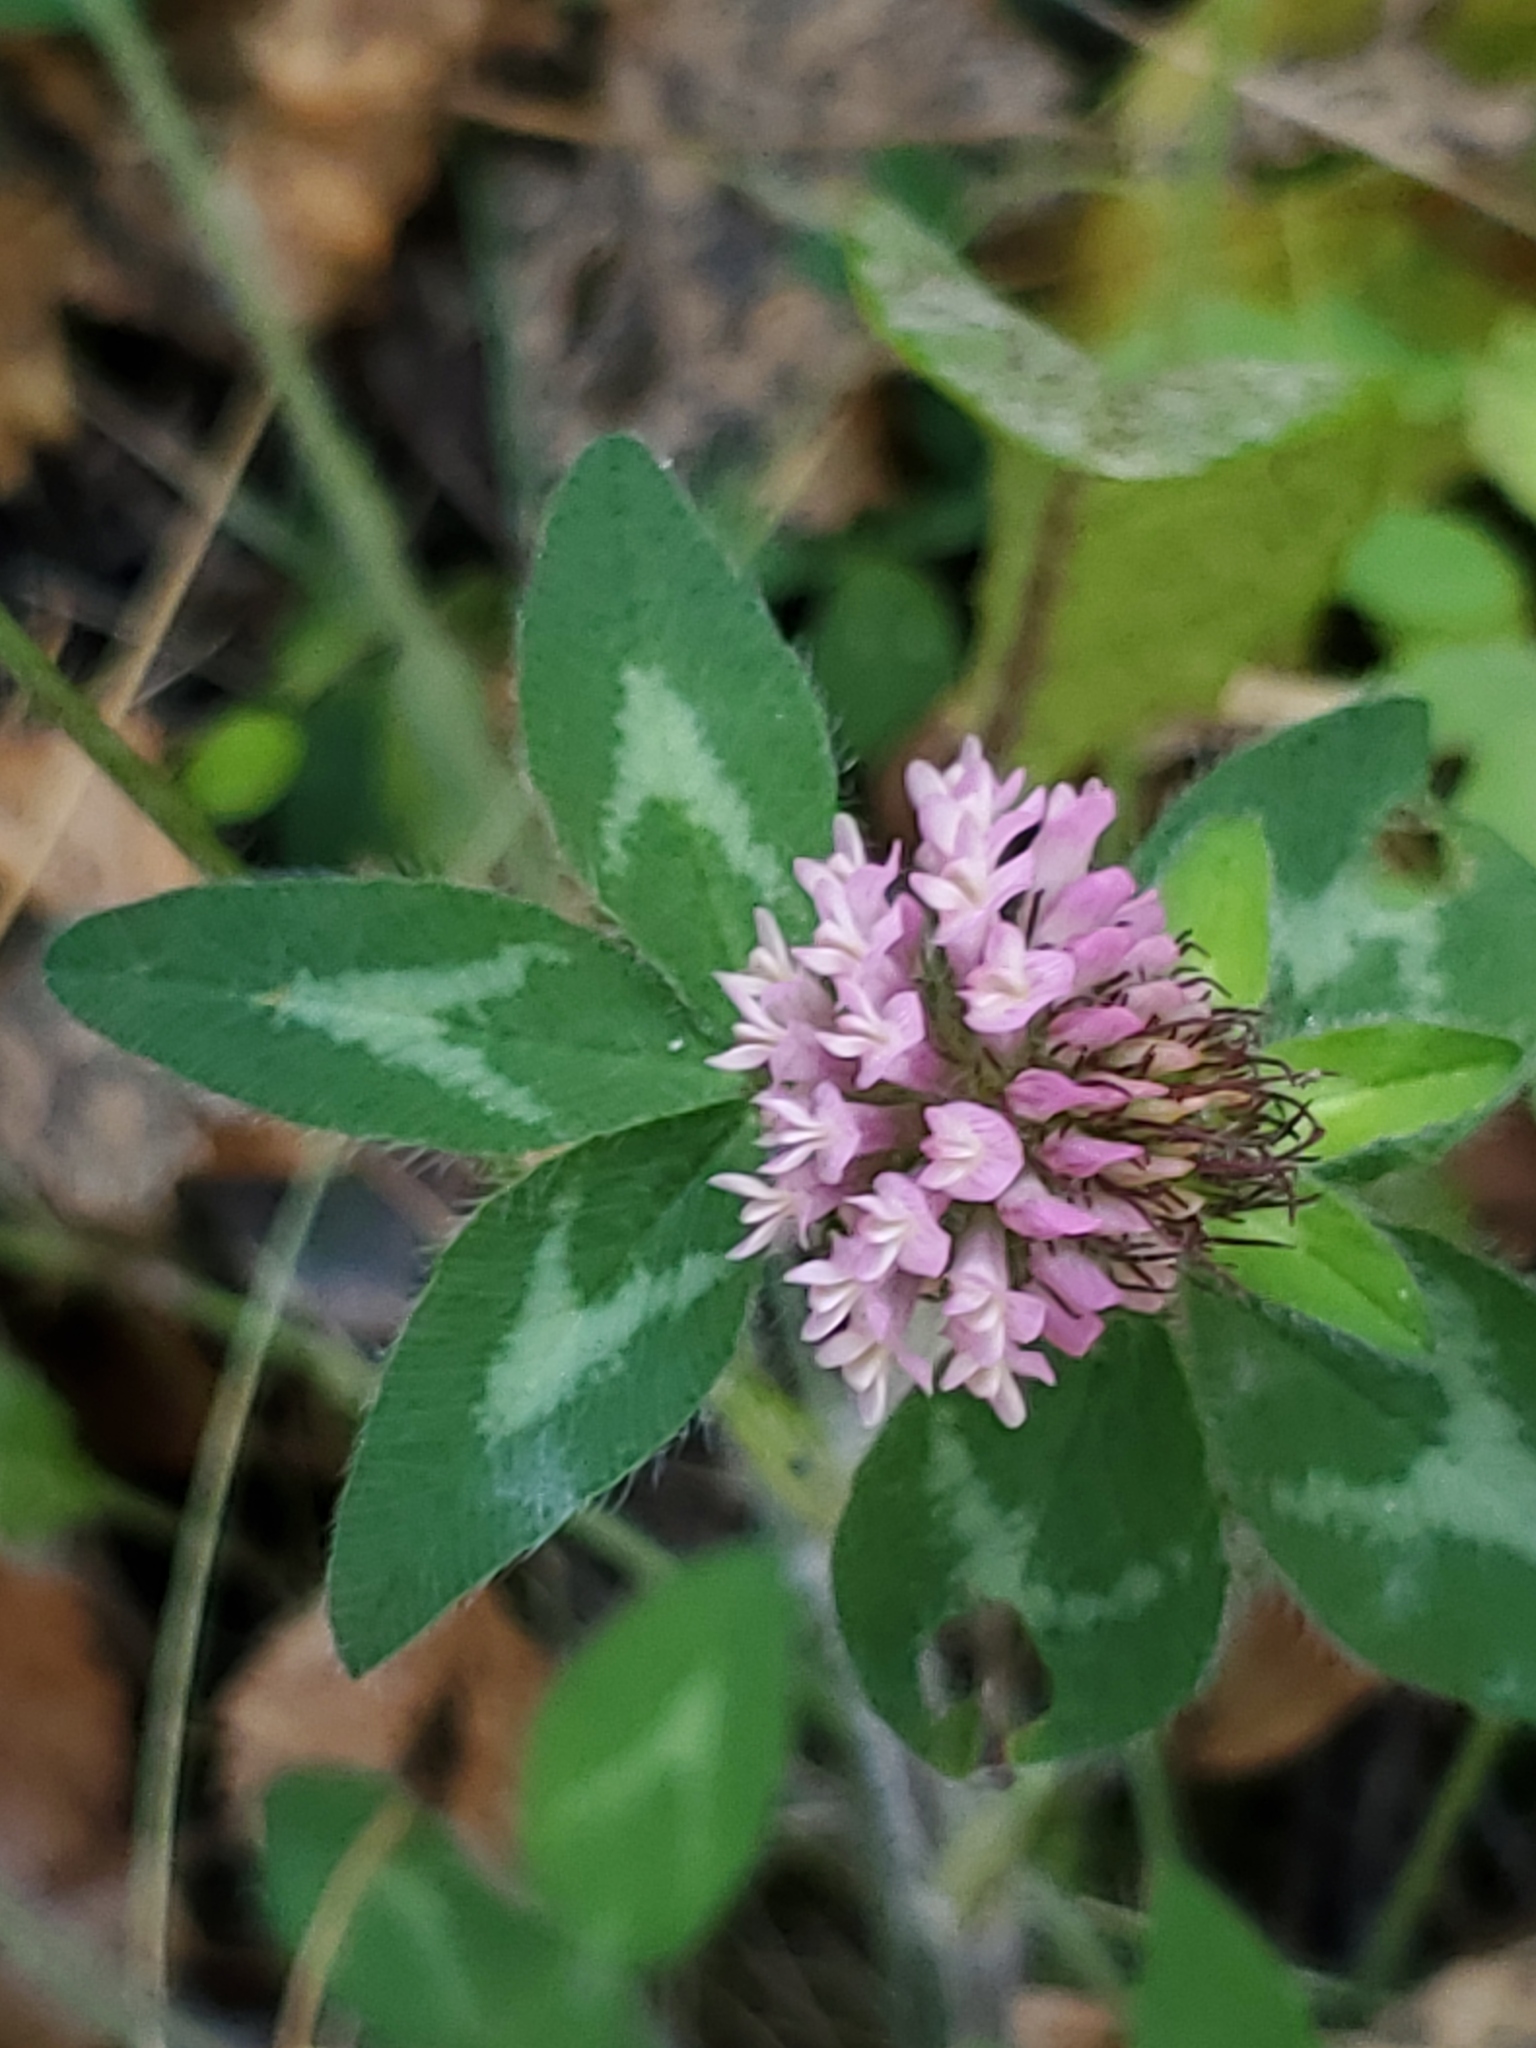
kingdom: Plantae
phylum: Tracheophyta
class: Magnoliopsida
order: Fabales
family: Fabaceae
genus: Trifolium
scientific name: Trifolium pratense
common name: Red clover
